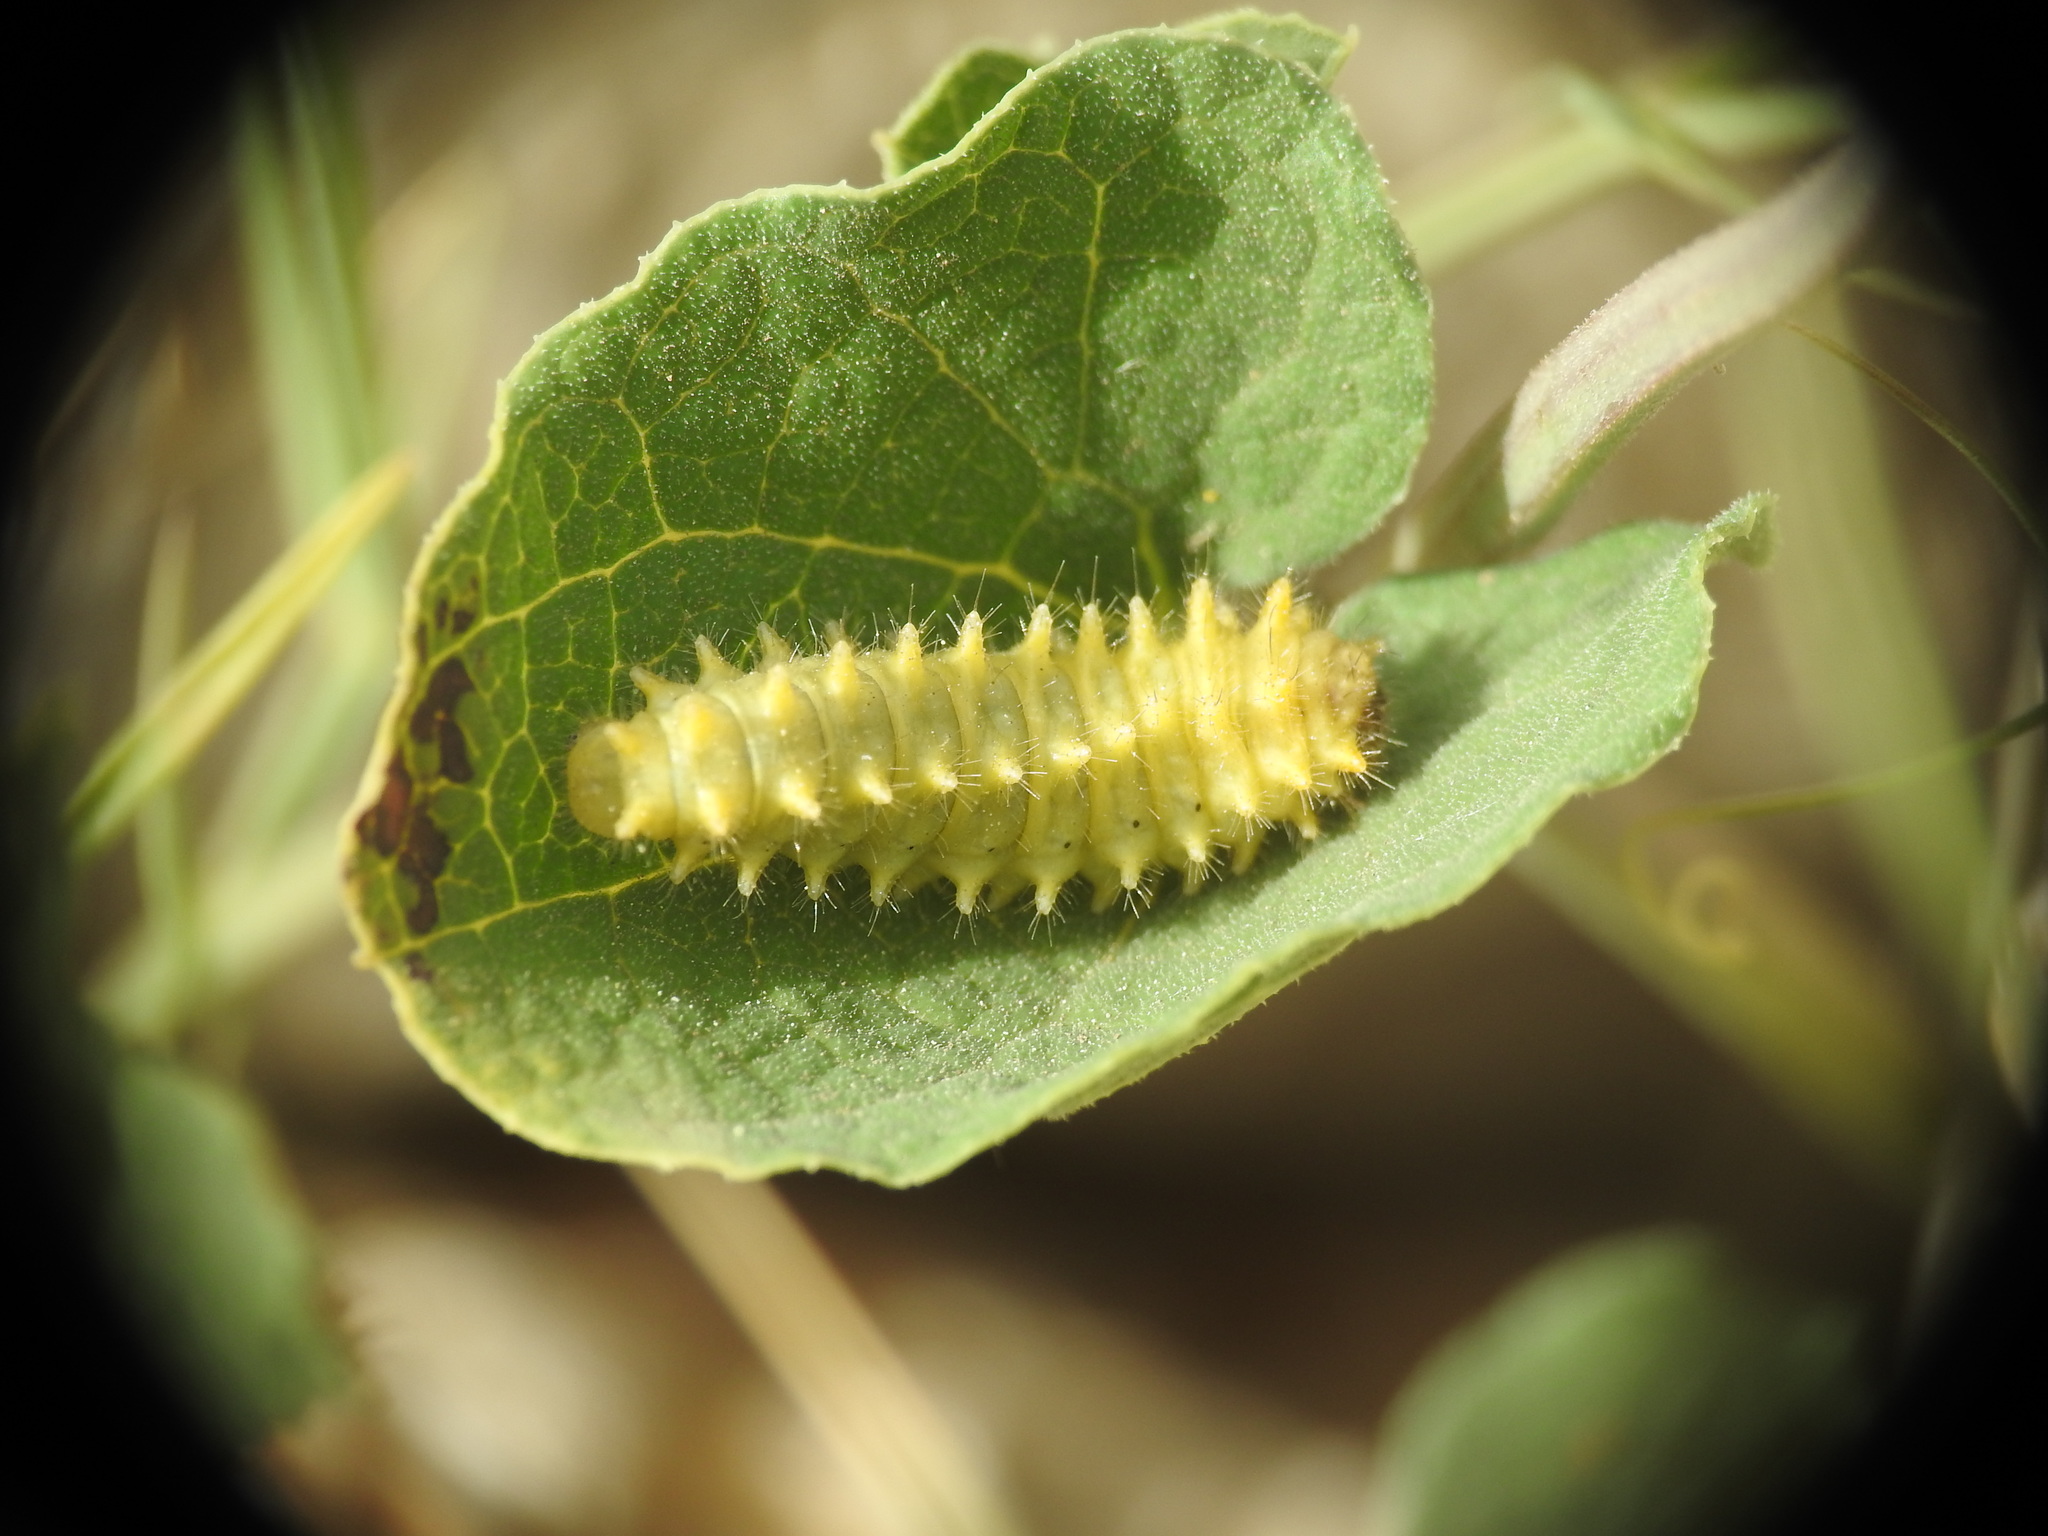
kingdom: Animalia
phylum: Arthropoda
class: Insecta
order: Lepidoptera
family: Papilionidae
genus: Zerynthia
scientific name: Zerynthia rumina
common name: Spanish festoon
